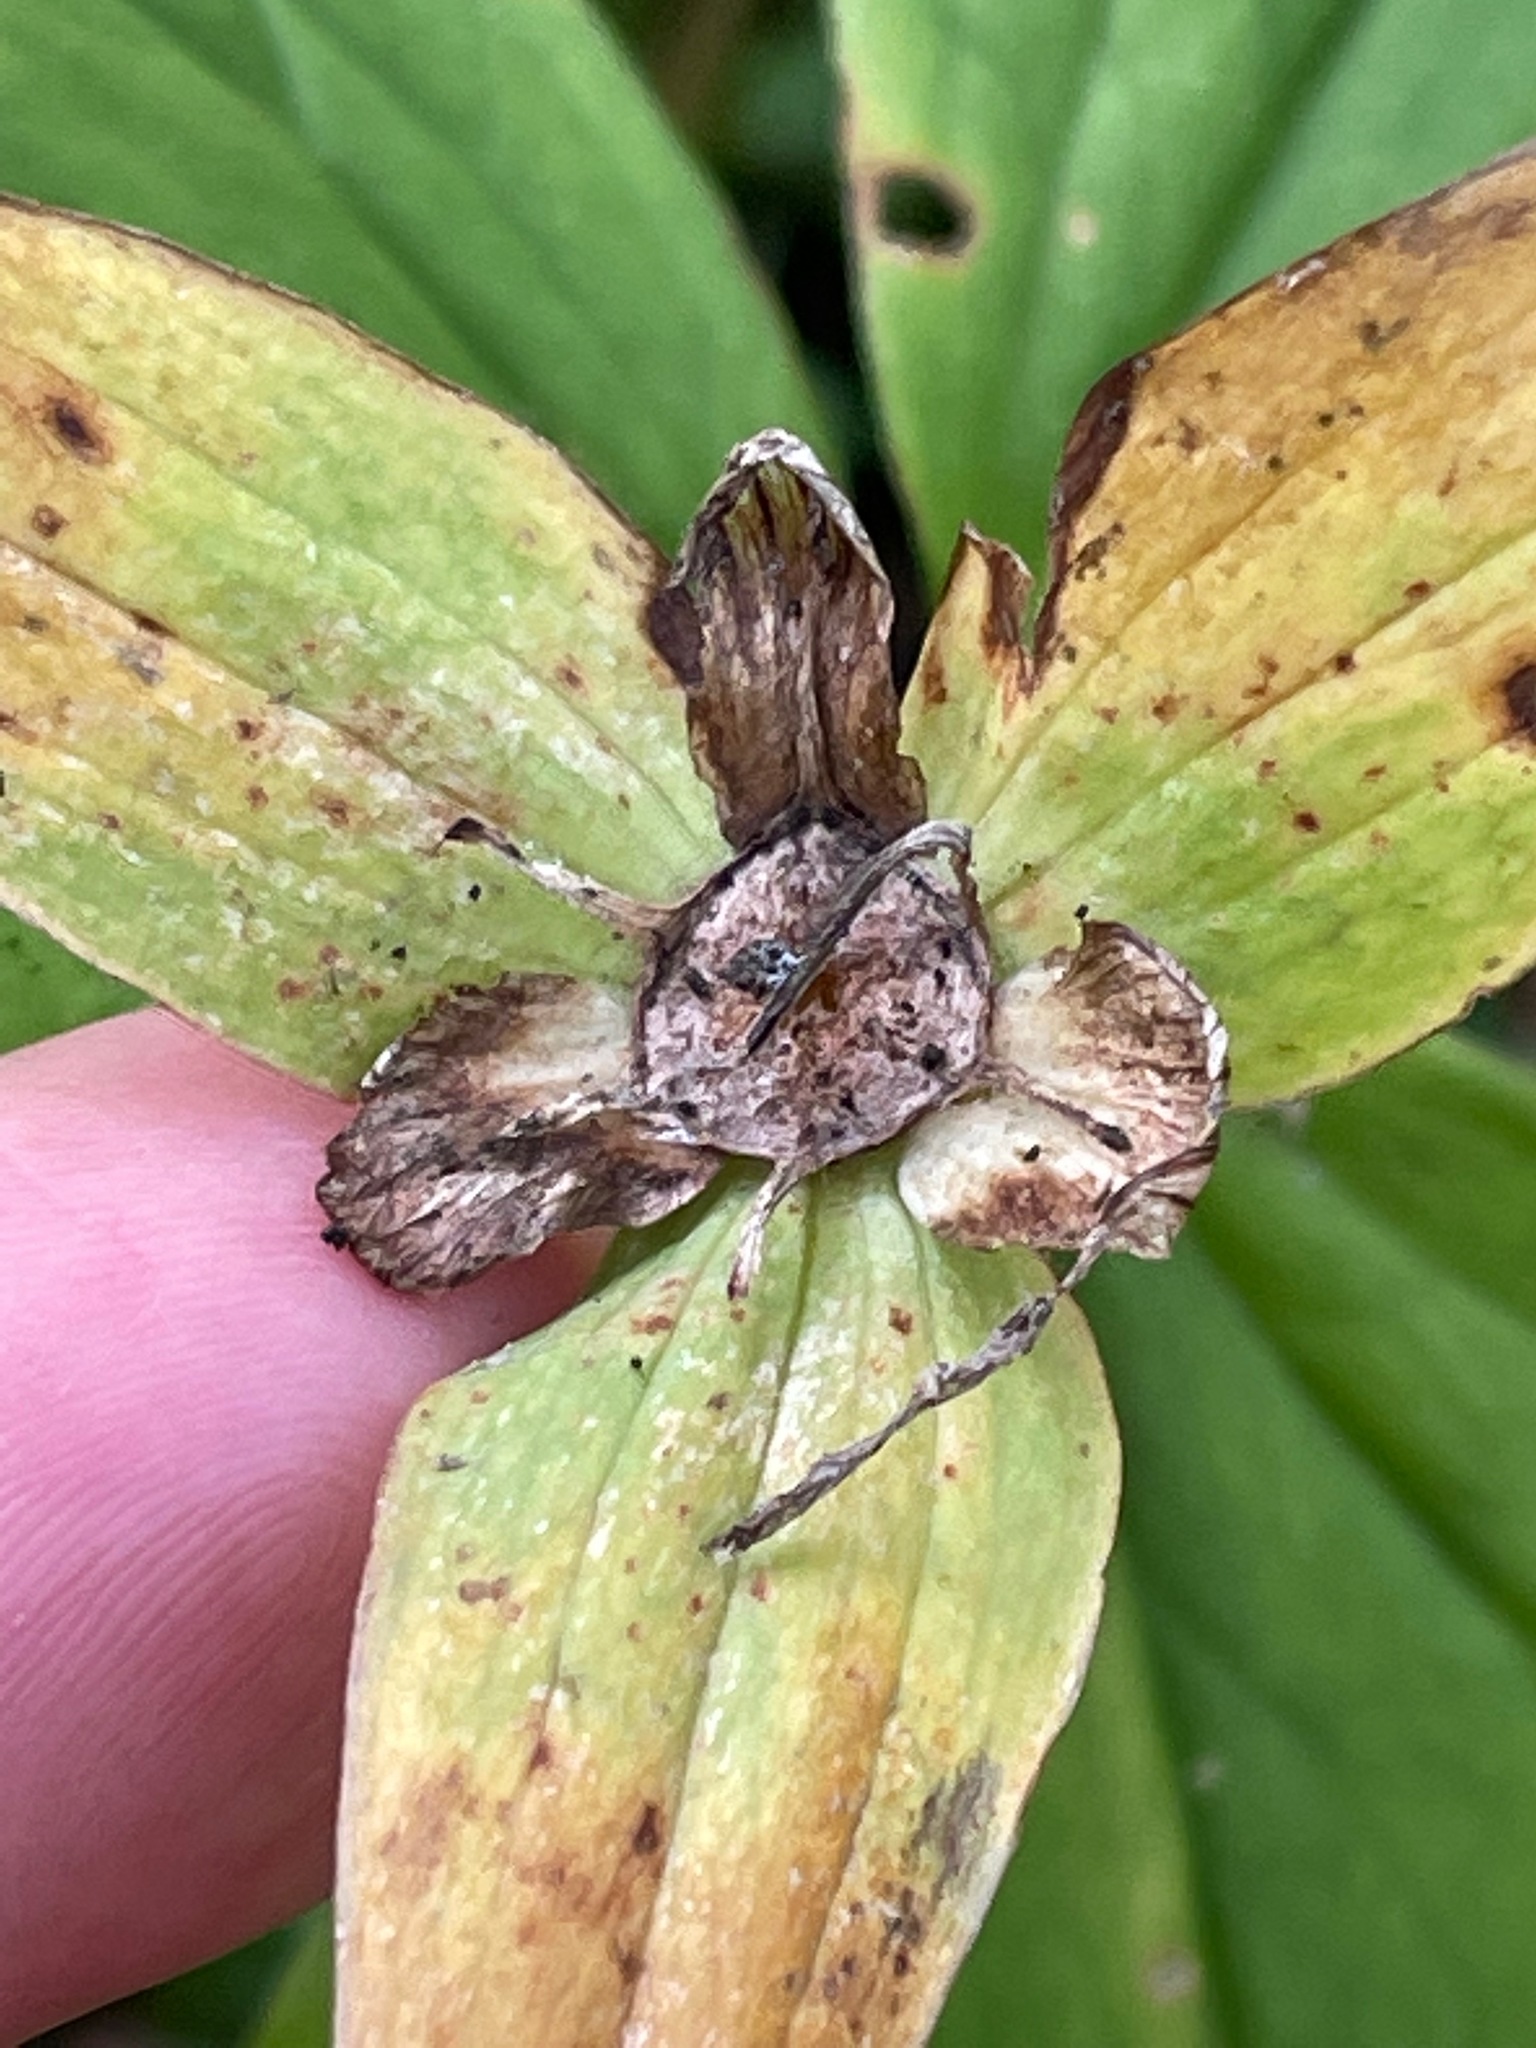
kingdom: Plantae
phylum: Tracheophyta
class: Liliopsida
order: Liliales
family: Melanthiaceae
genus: Trillium
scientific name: Trillium grandiflorum
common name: Great white trillium
